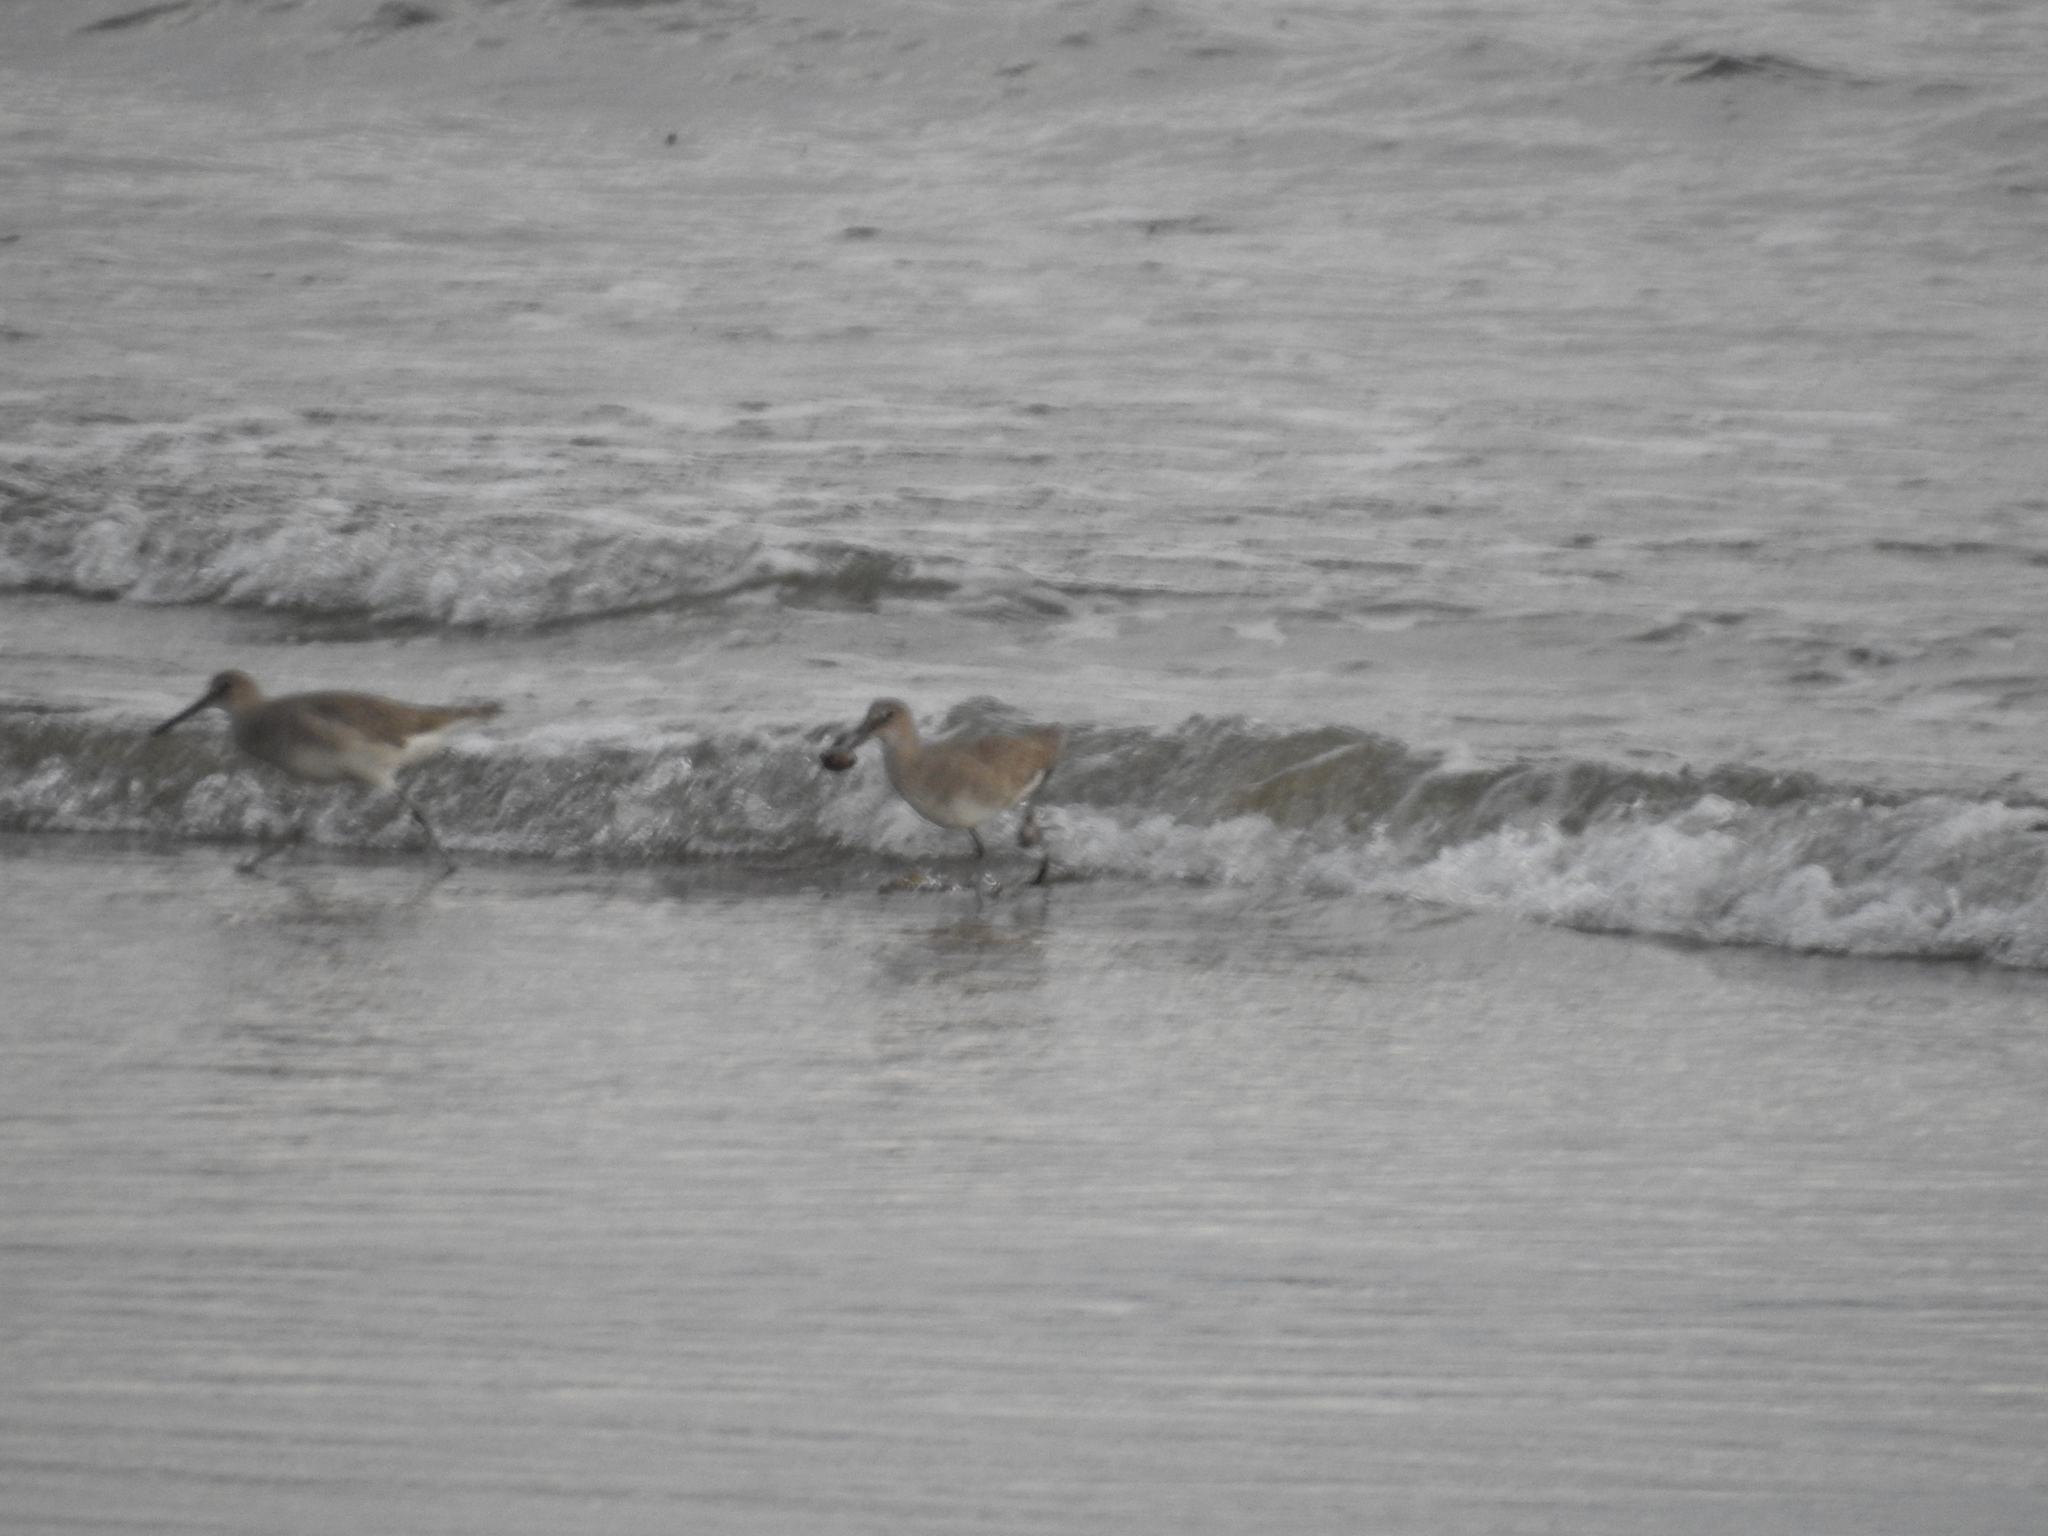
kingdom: Animalia
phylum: Chordata
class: Aves
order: Charadriiformes
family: Scolopacidae
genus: Tringa
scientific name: Tringa semipalmata
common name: Willet
